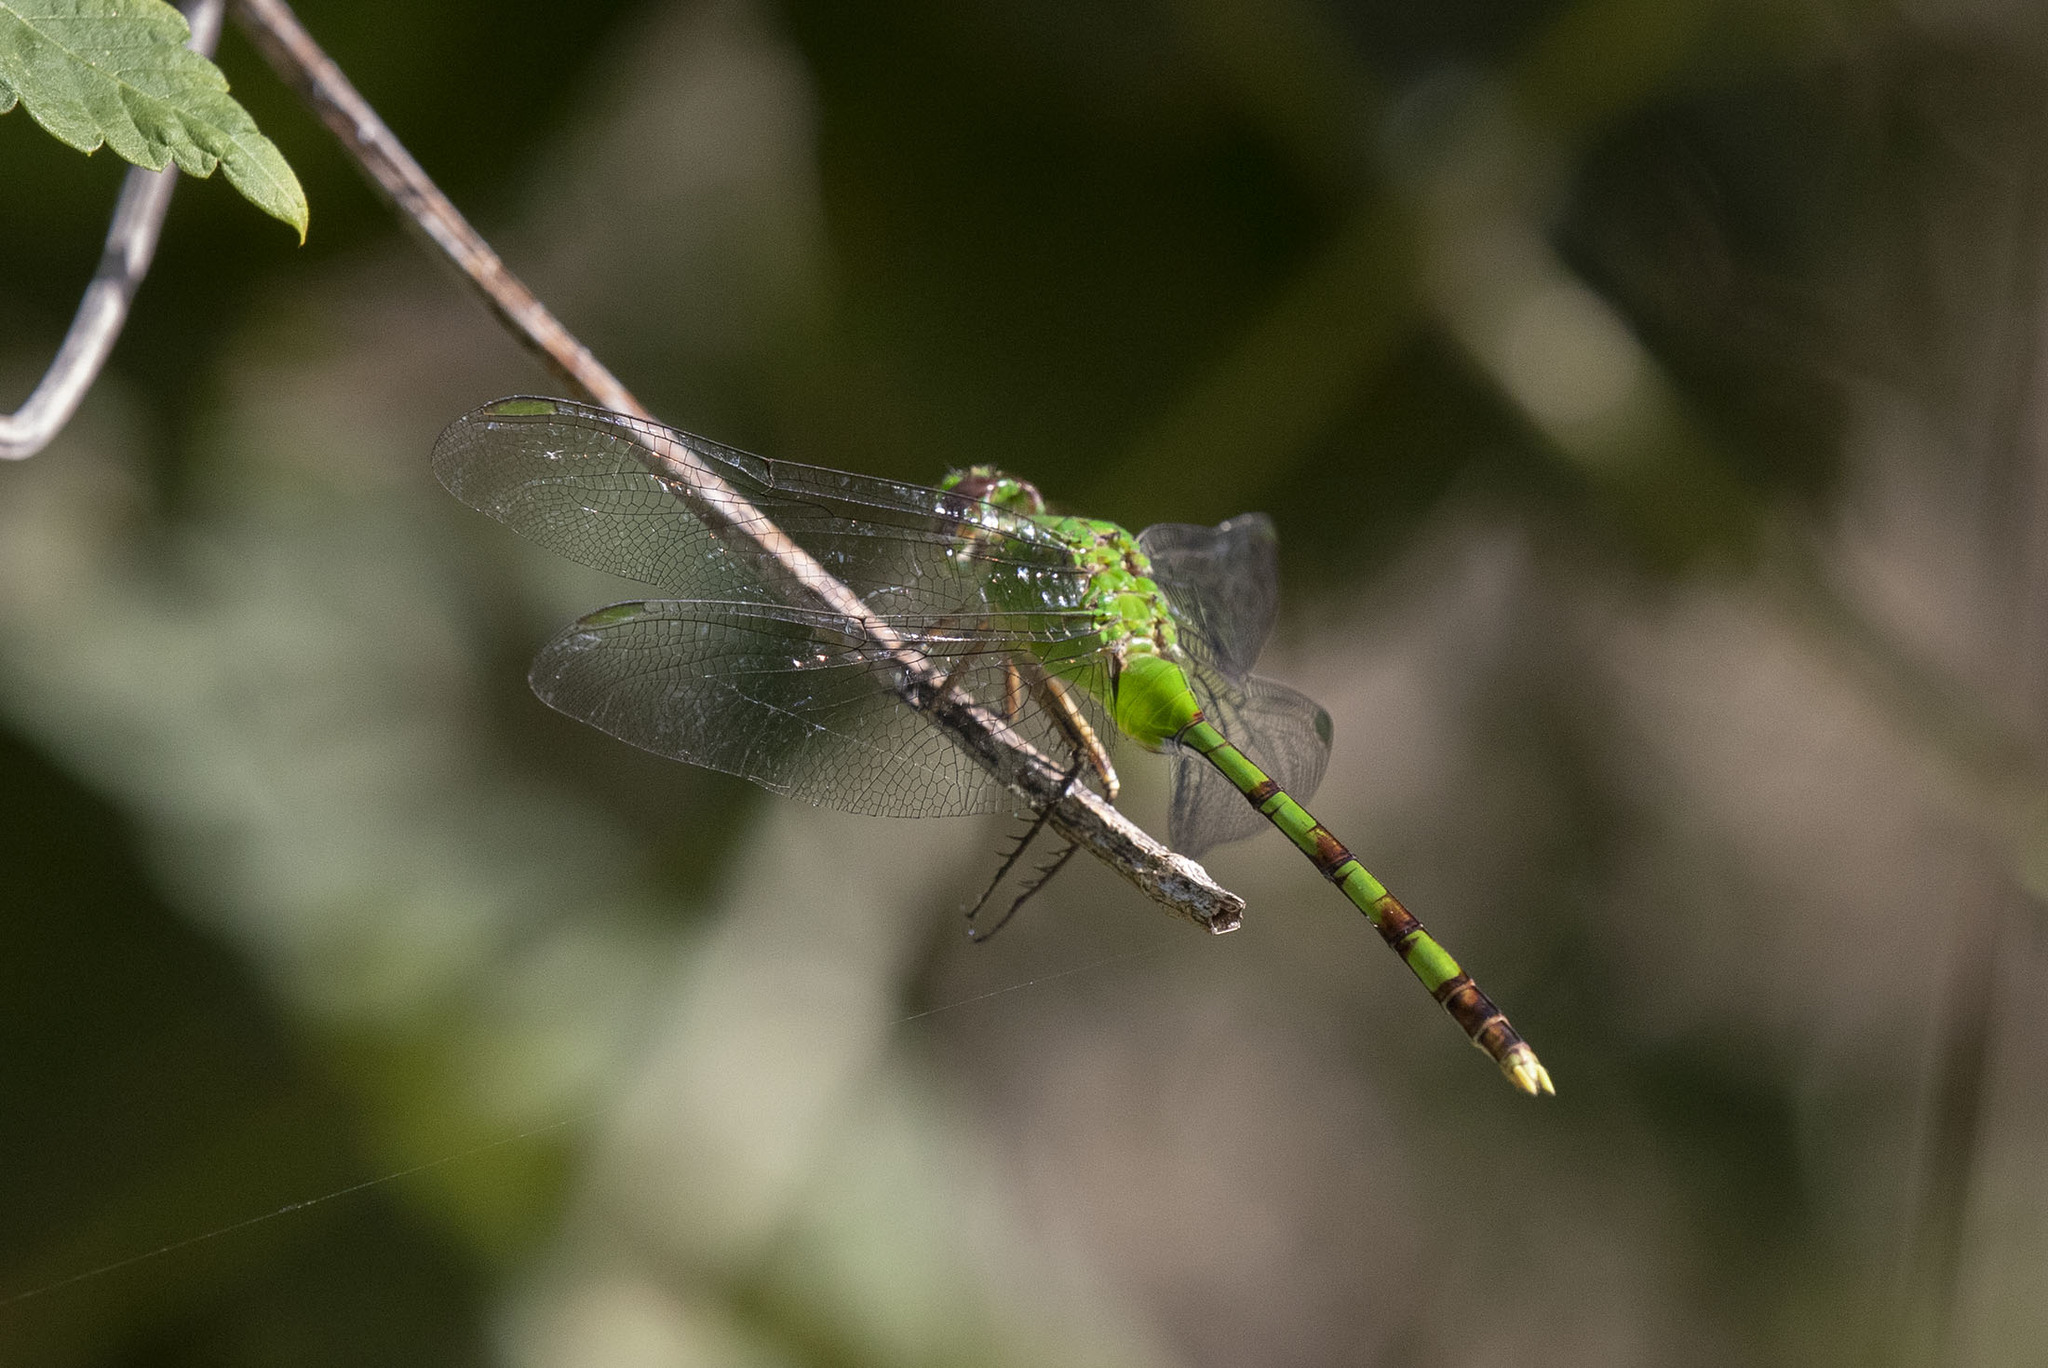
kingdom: Animalia
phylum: Arthropoda
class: Insecta
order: Odonata
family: Libellulidae
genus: Erythemis
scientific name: Erythemis vesiculosa
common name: Great pondhawk
